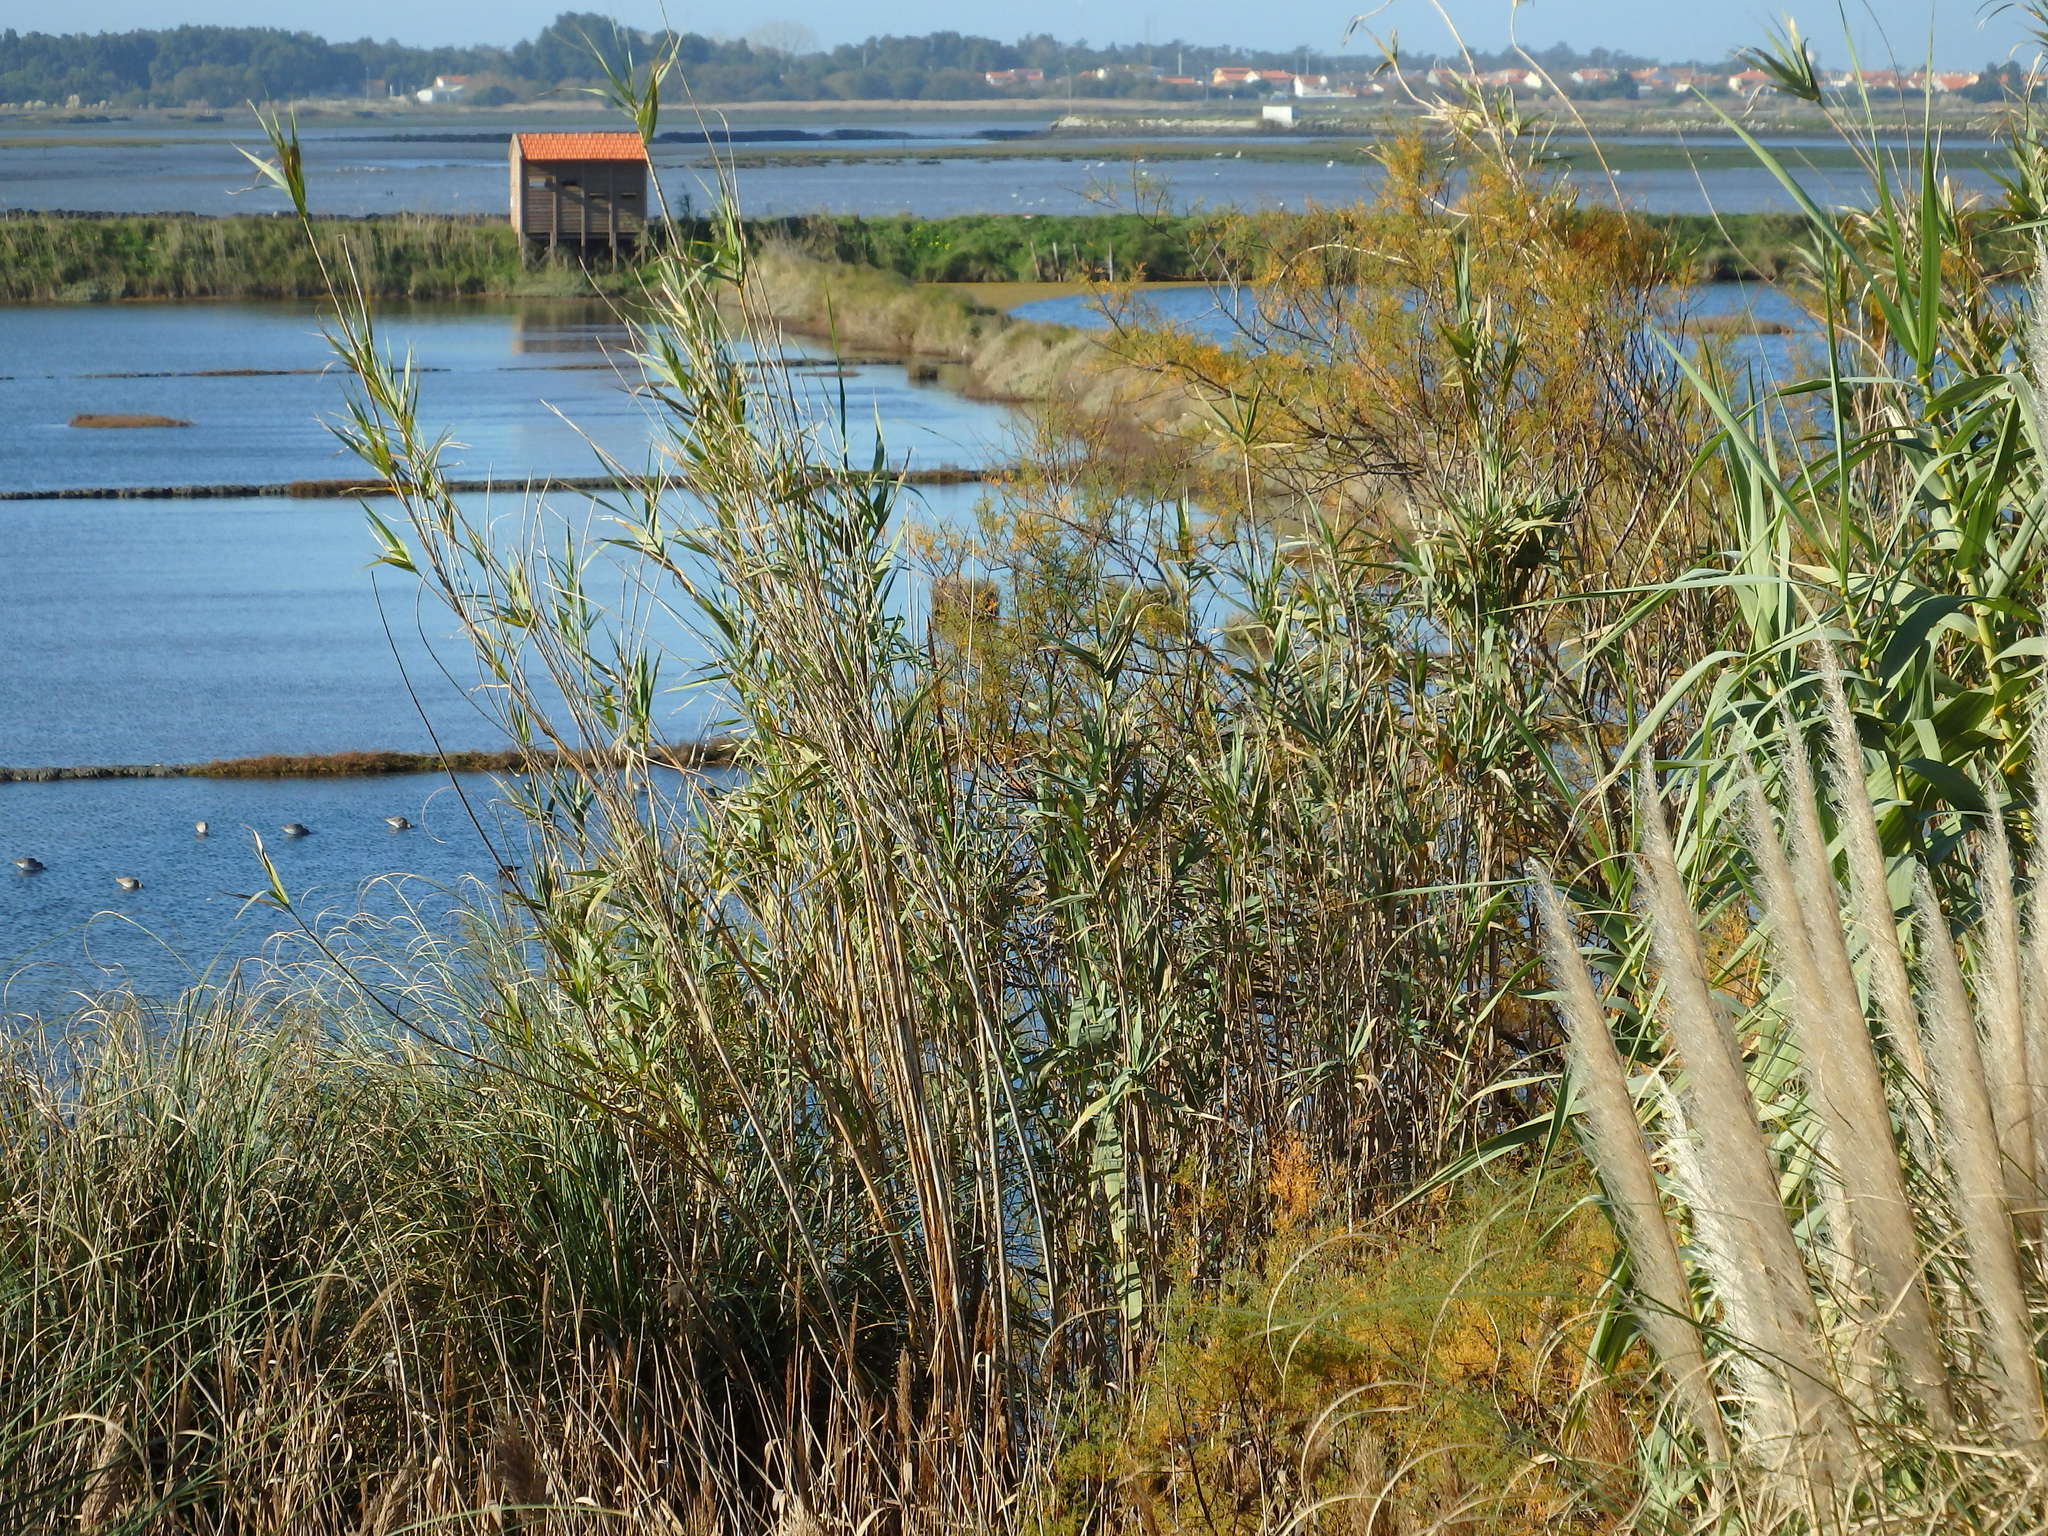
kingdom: Plantae
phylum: Tracheophyta
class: Liliopsida
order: Poales
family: Poaceae
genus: Arundo
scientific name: Arundo donax
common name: Giant reed
